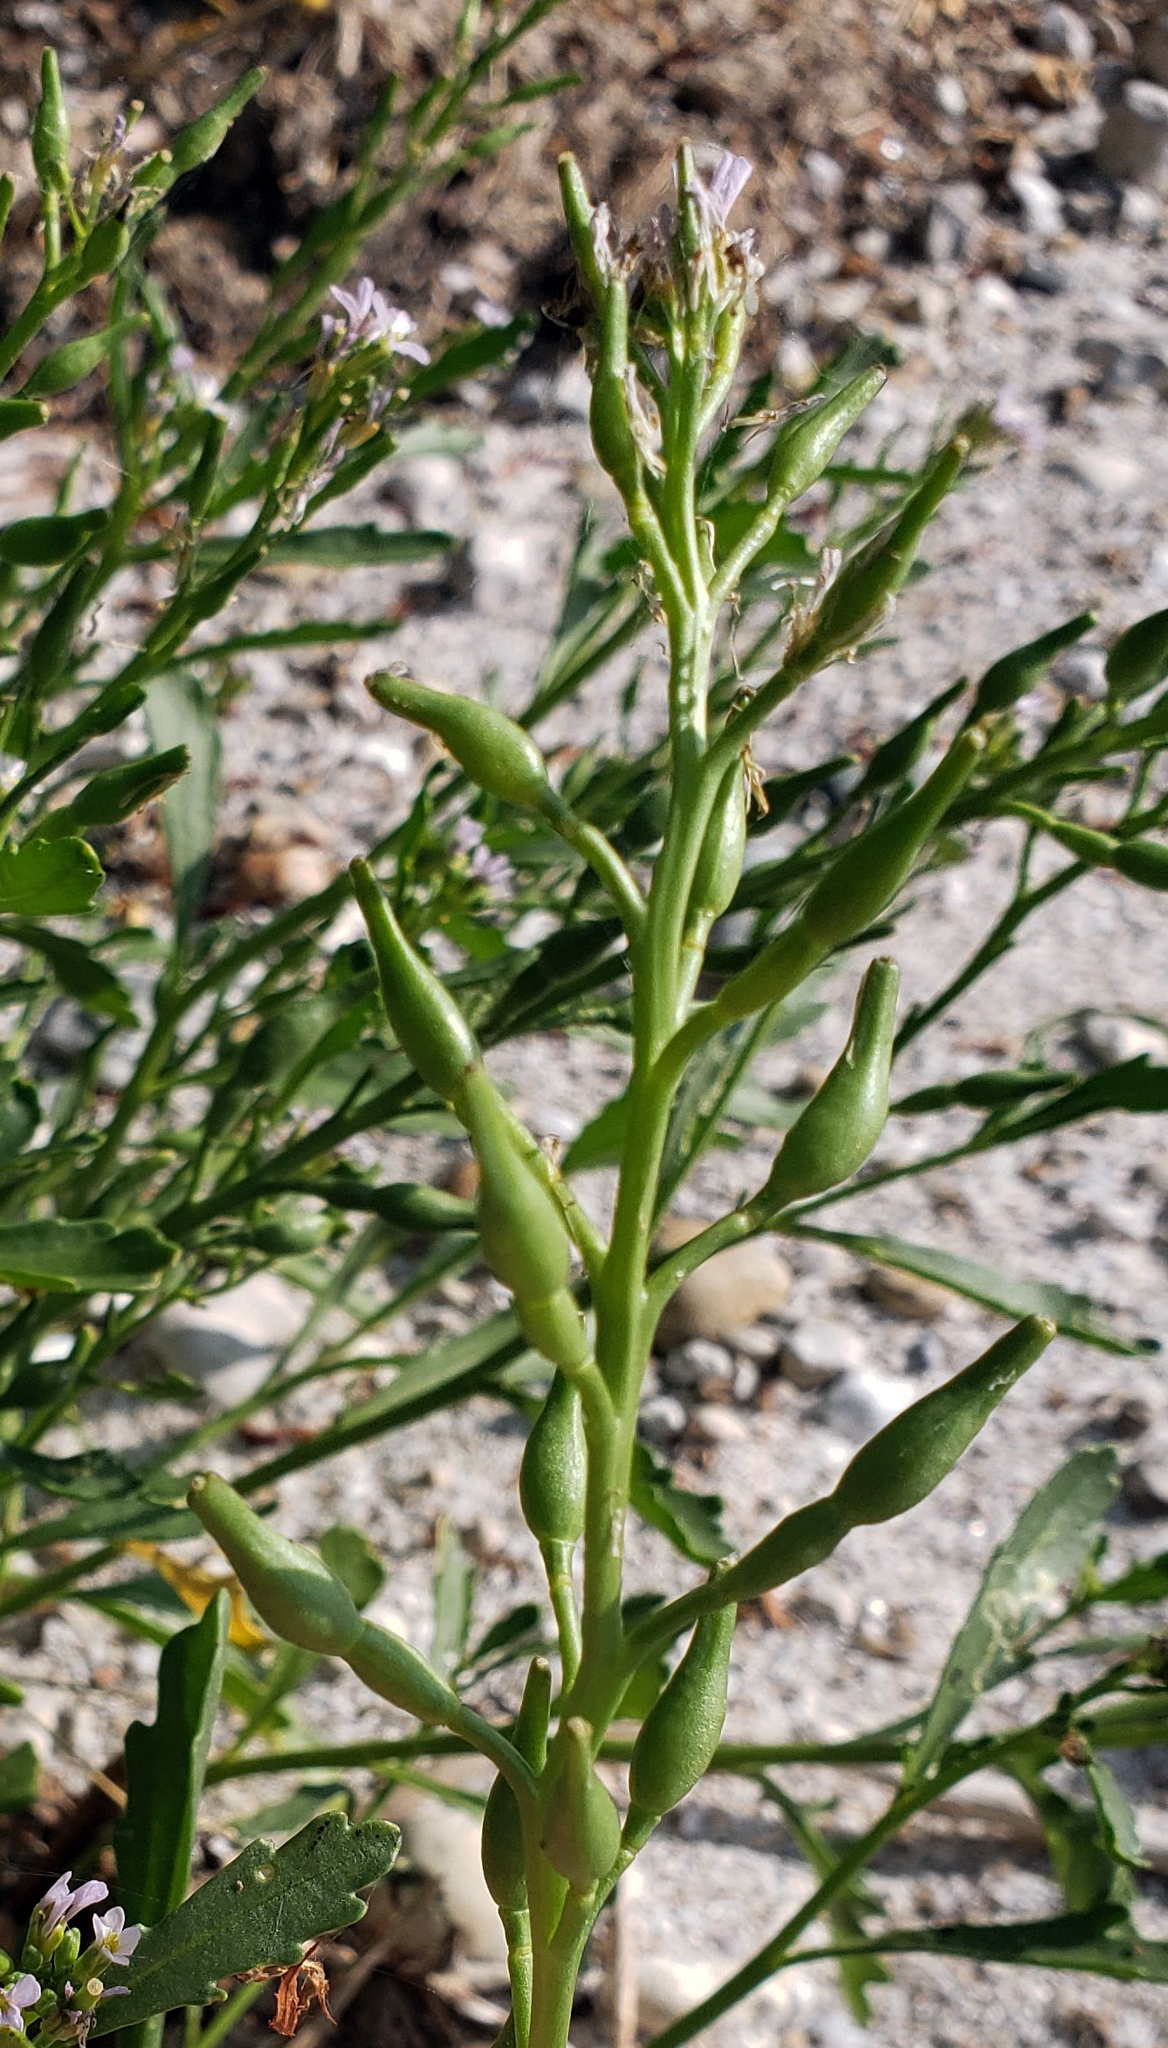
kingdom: Plantae
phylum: Tracheophyta
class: Magnoliopsida
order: Brassicales
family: Brassicaceae
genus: Cakile
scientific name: Cakile edentula
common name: American sea rocket
